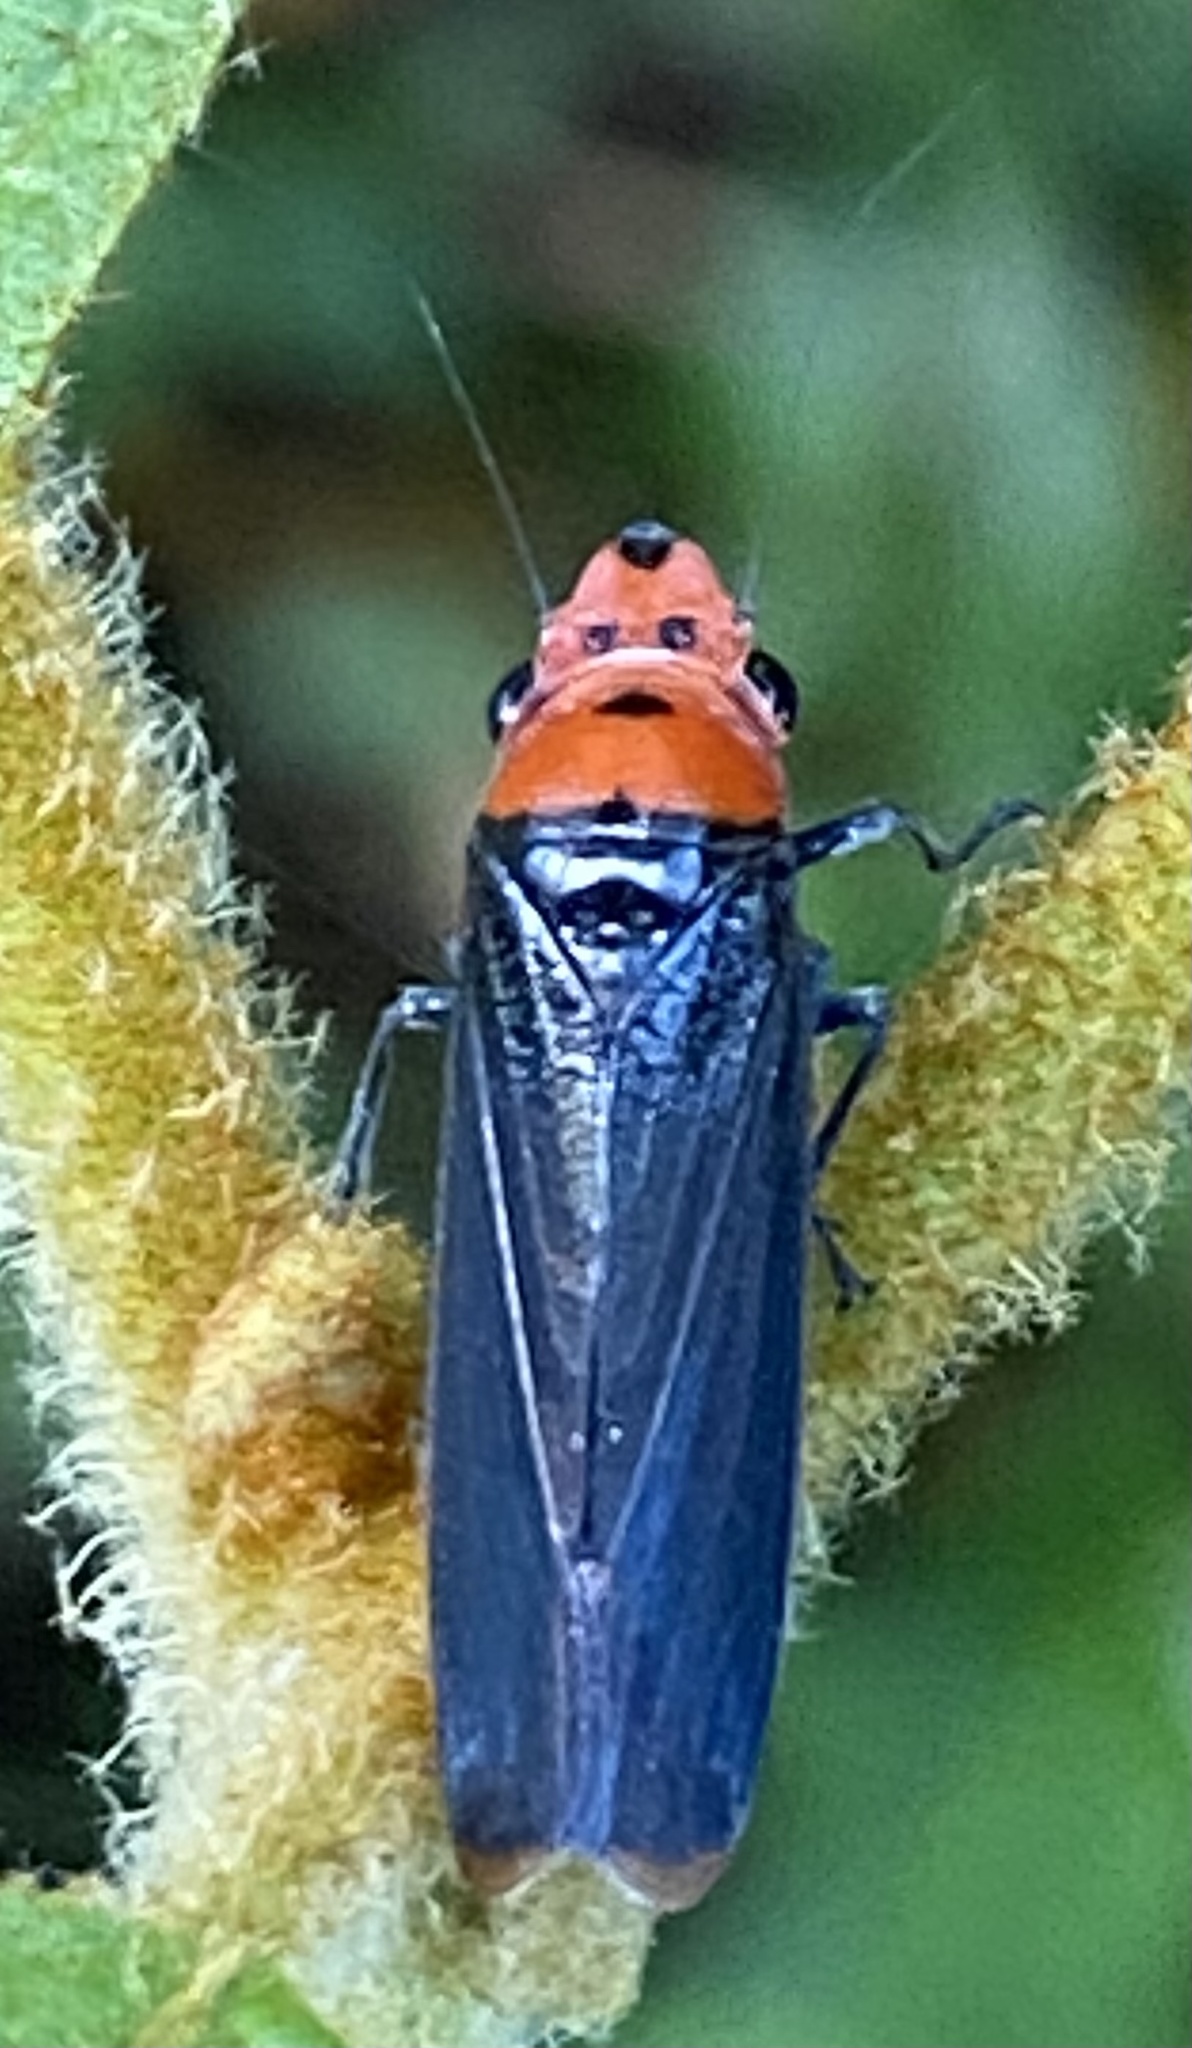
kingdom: Animalia
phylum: Arthropoda
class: Insecta
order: Hemiptera
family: Cicadellidae
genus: Aulacizes
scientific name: Aulacizes quadripunctata
